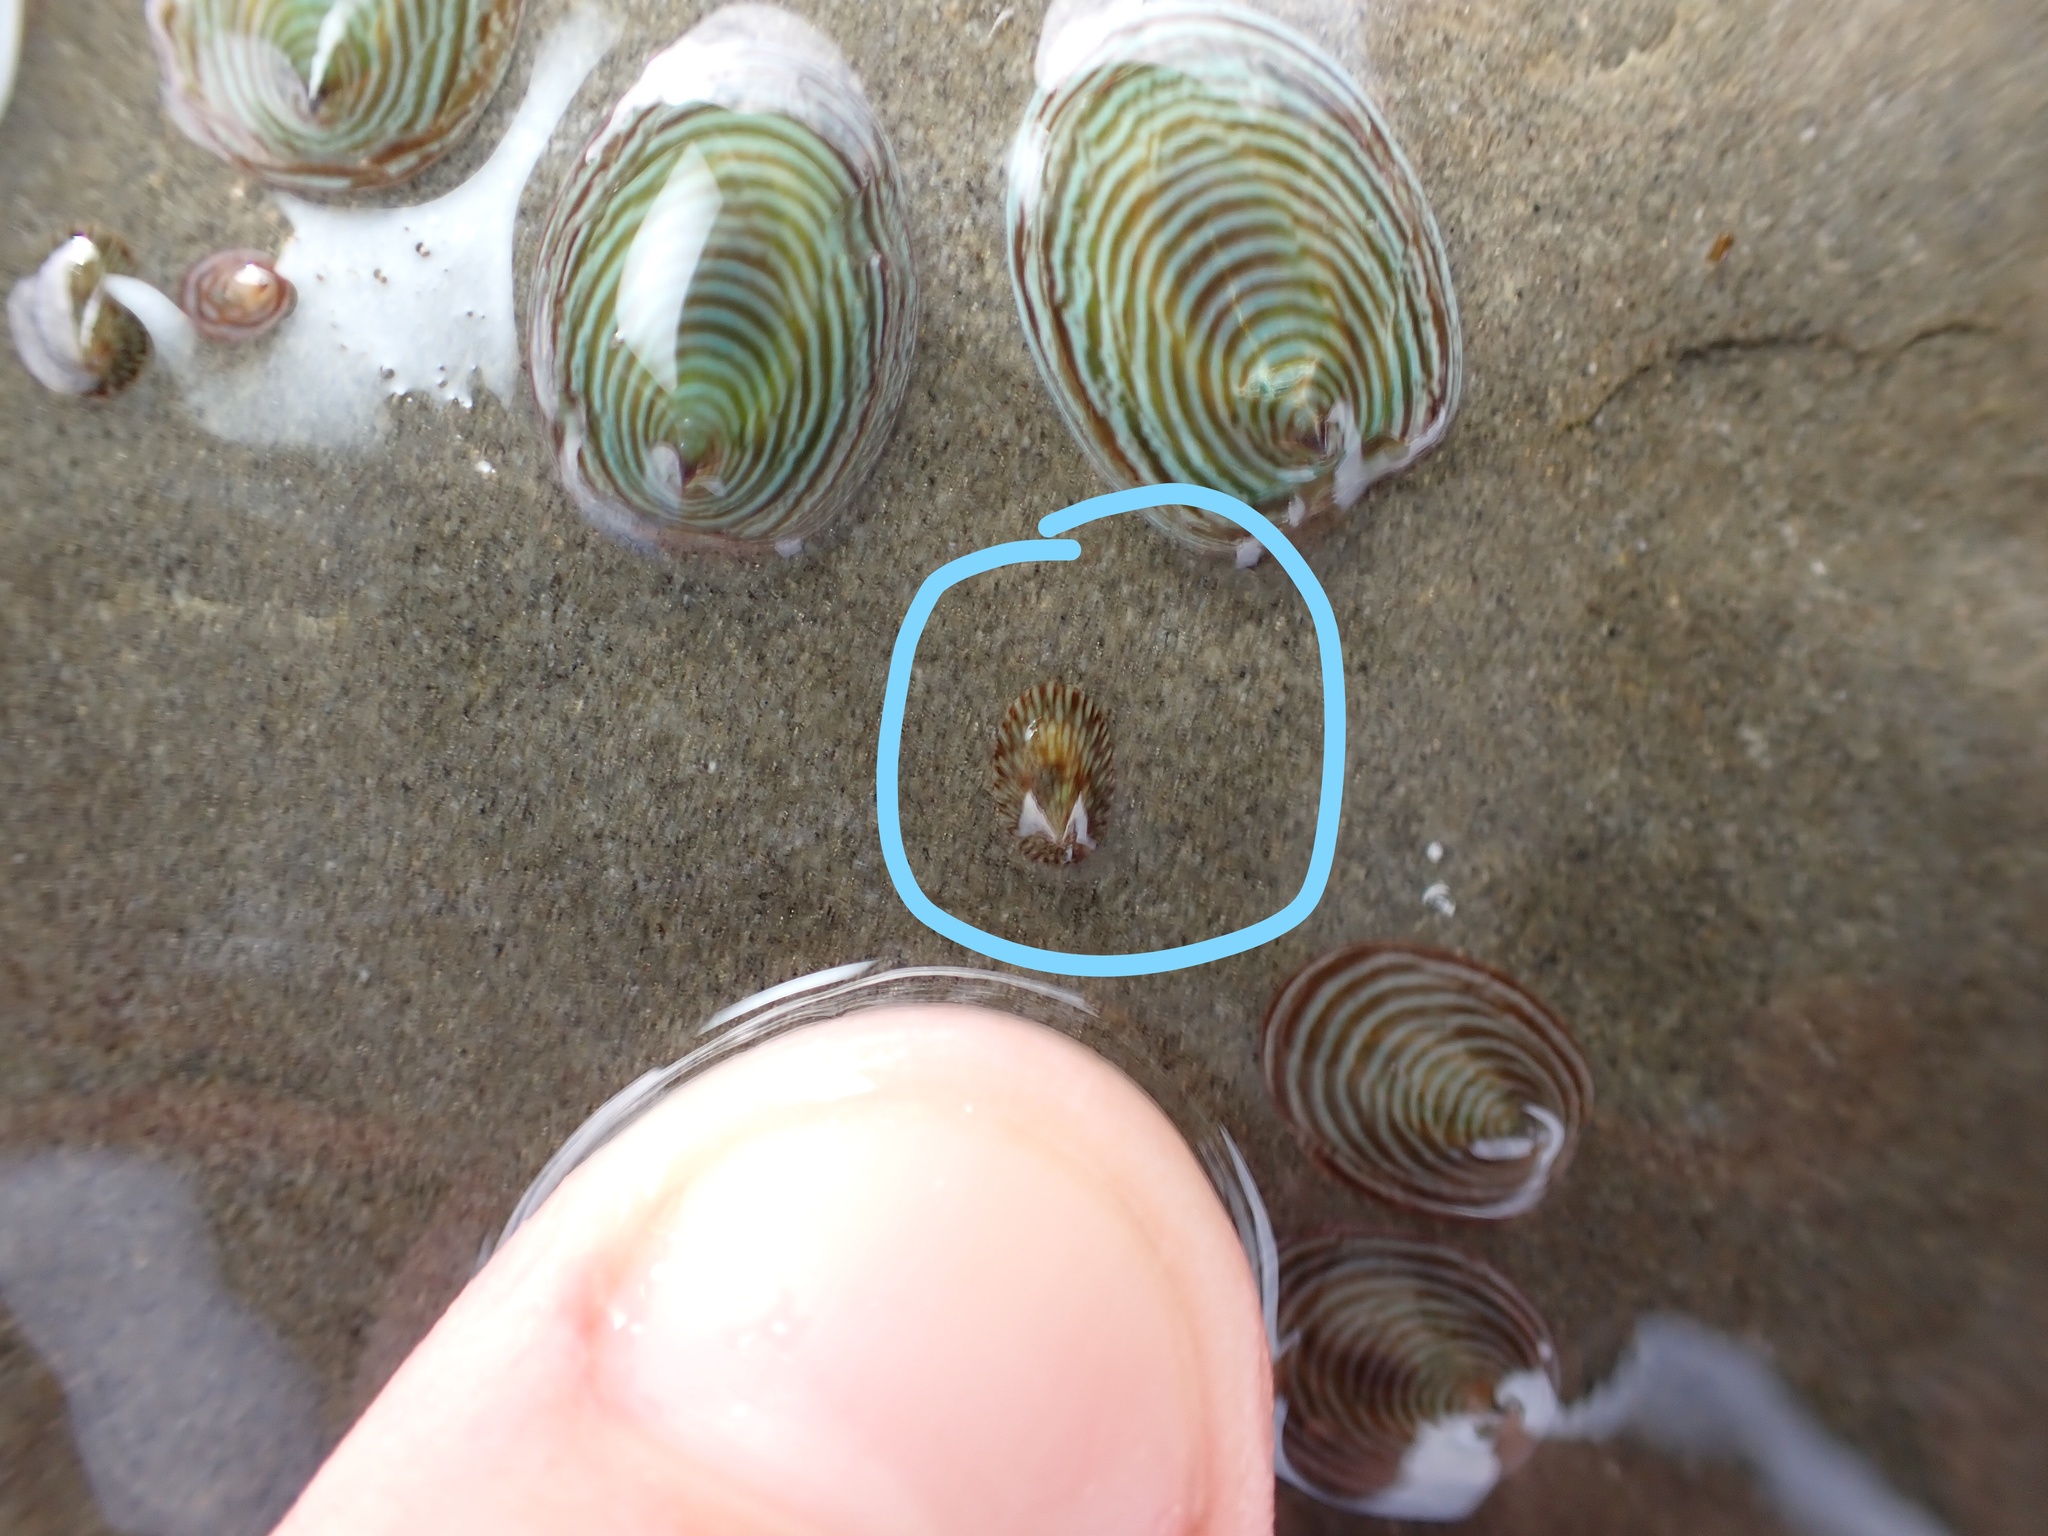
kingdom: Animalia
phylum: Mollusca
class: Gastropoda
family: Lottiidae
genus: Notoacmea
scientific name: Notoacmea
